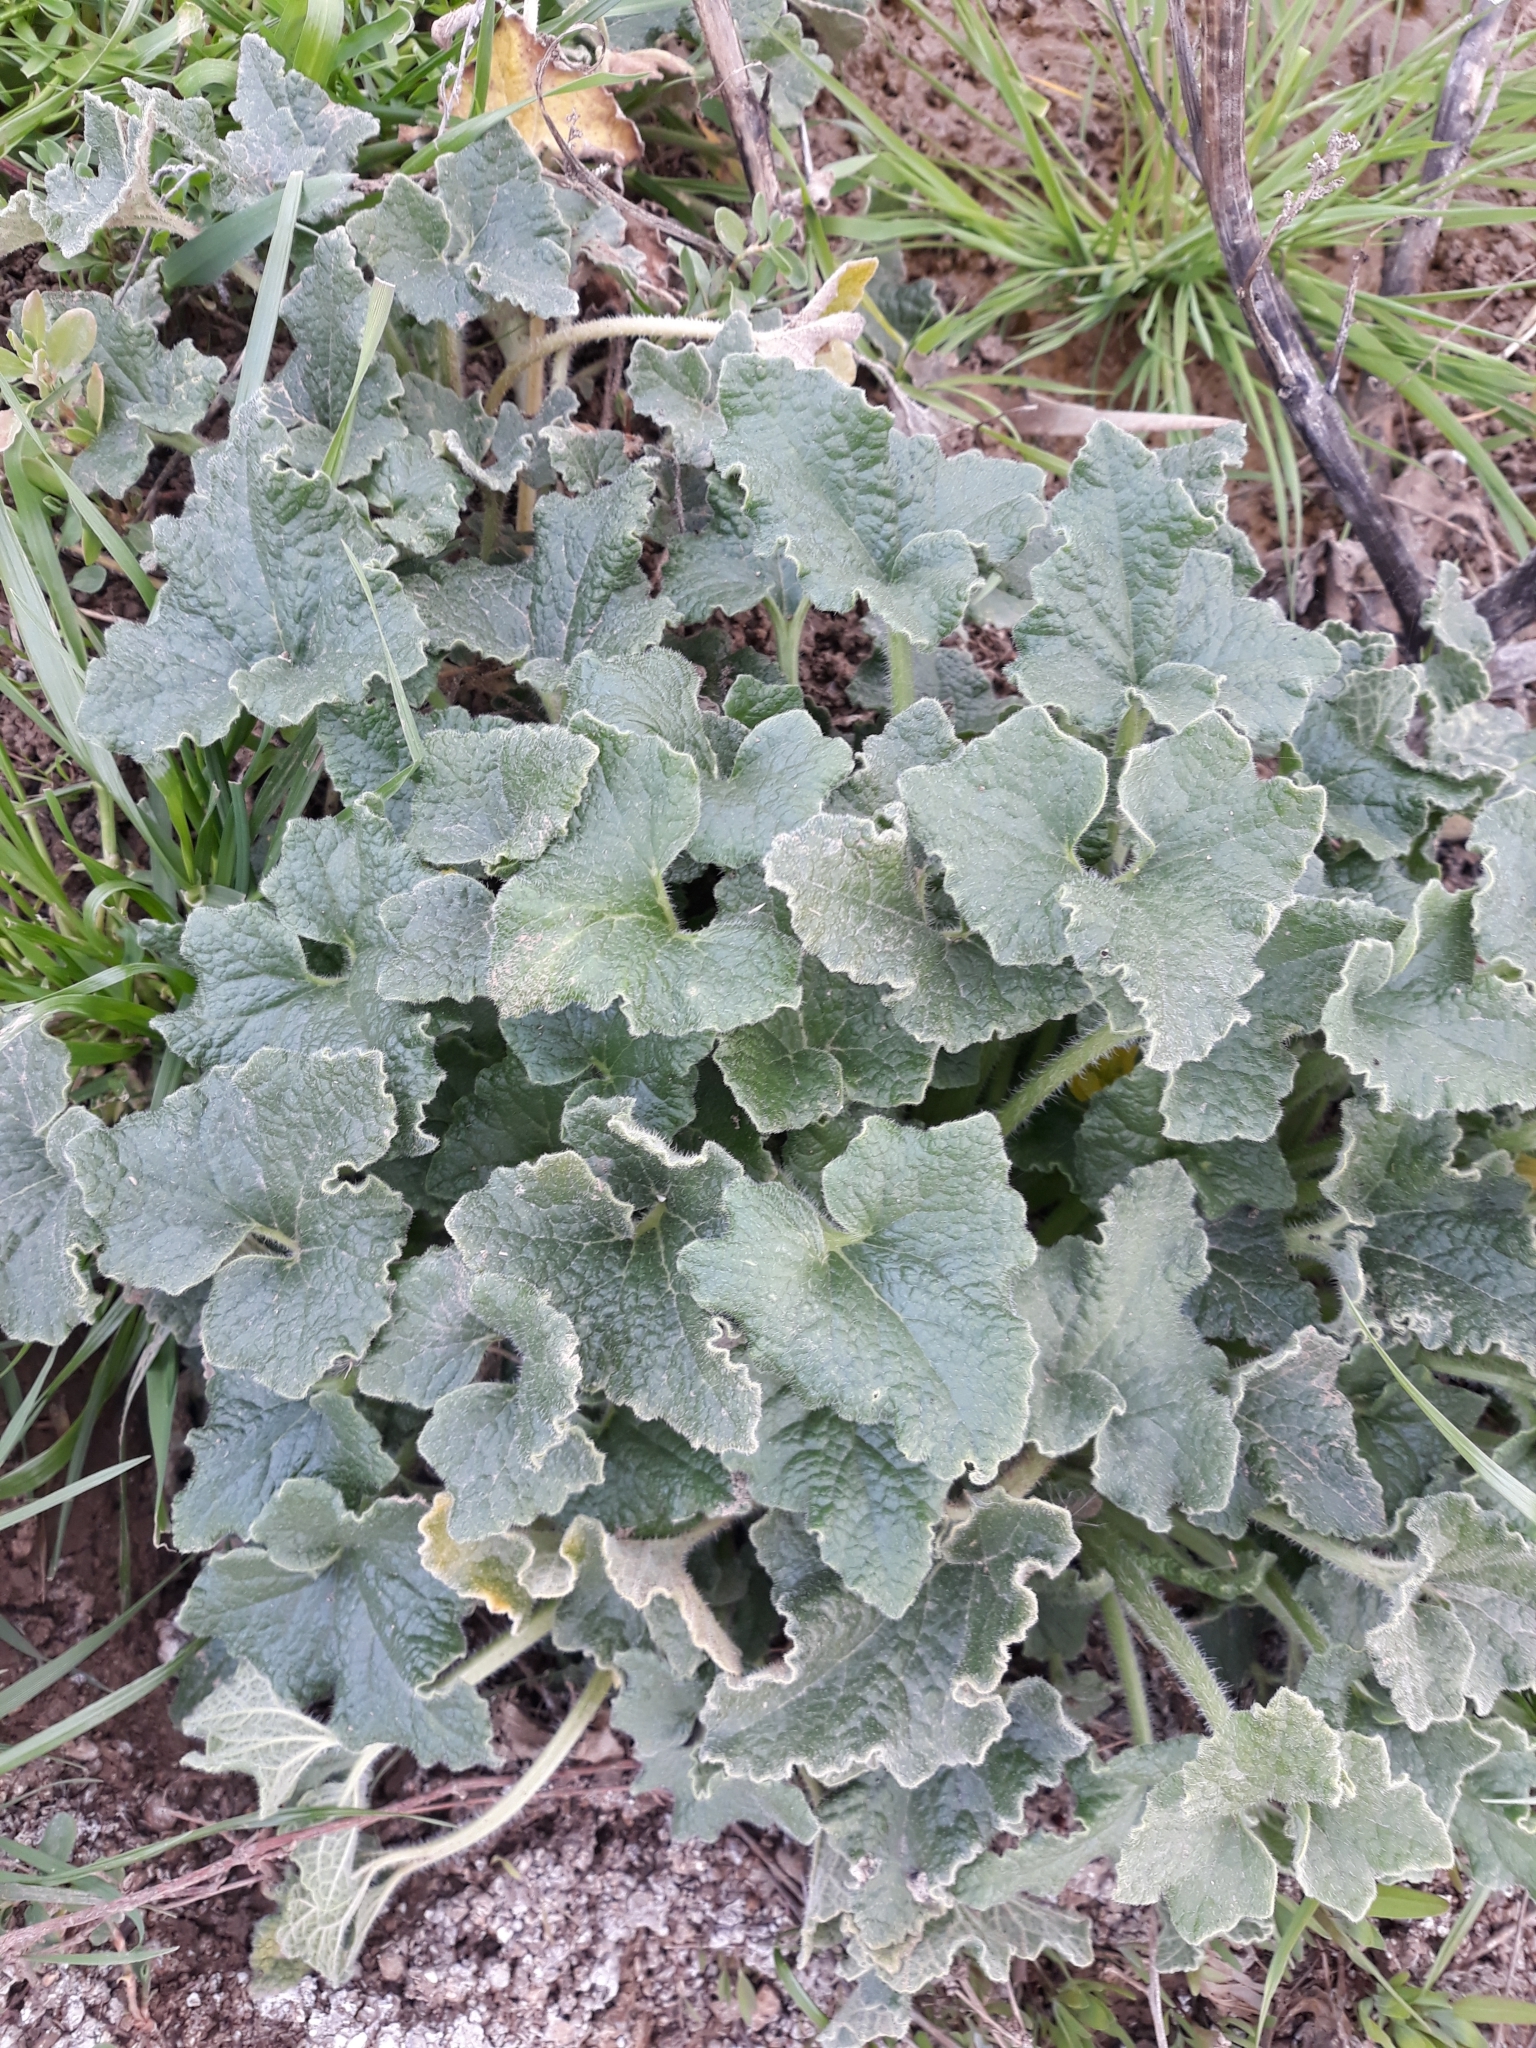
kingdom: Plantae
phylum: Tracheophyta
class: Magnoliopsida
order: Cucurbitales
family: Cucurbitaceae
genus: Ecballium
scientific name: Ecballium elaterium
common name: Squirting cucumber
